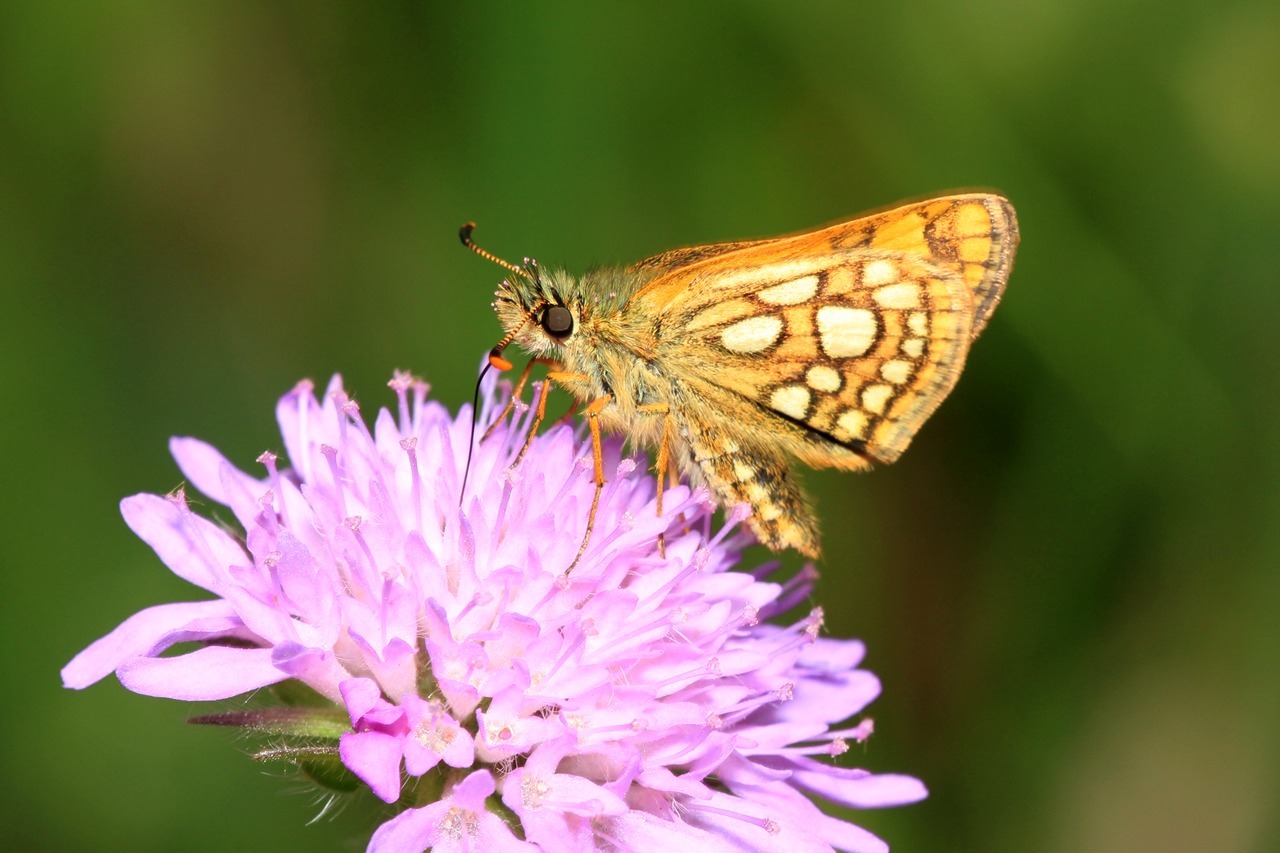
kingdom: Animalia
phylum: Arthropoda
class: Insecta
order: Lepidoptera
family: Hesperiidae
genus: Carterocephalus
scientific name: Carterocephalus palaemon
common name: Chequered skipper
